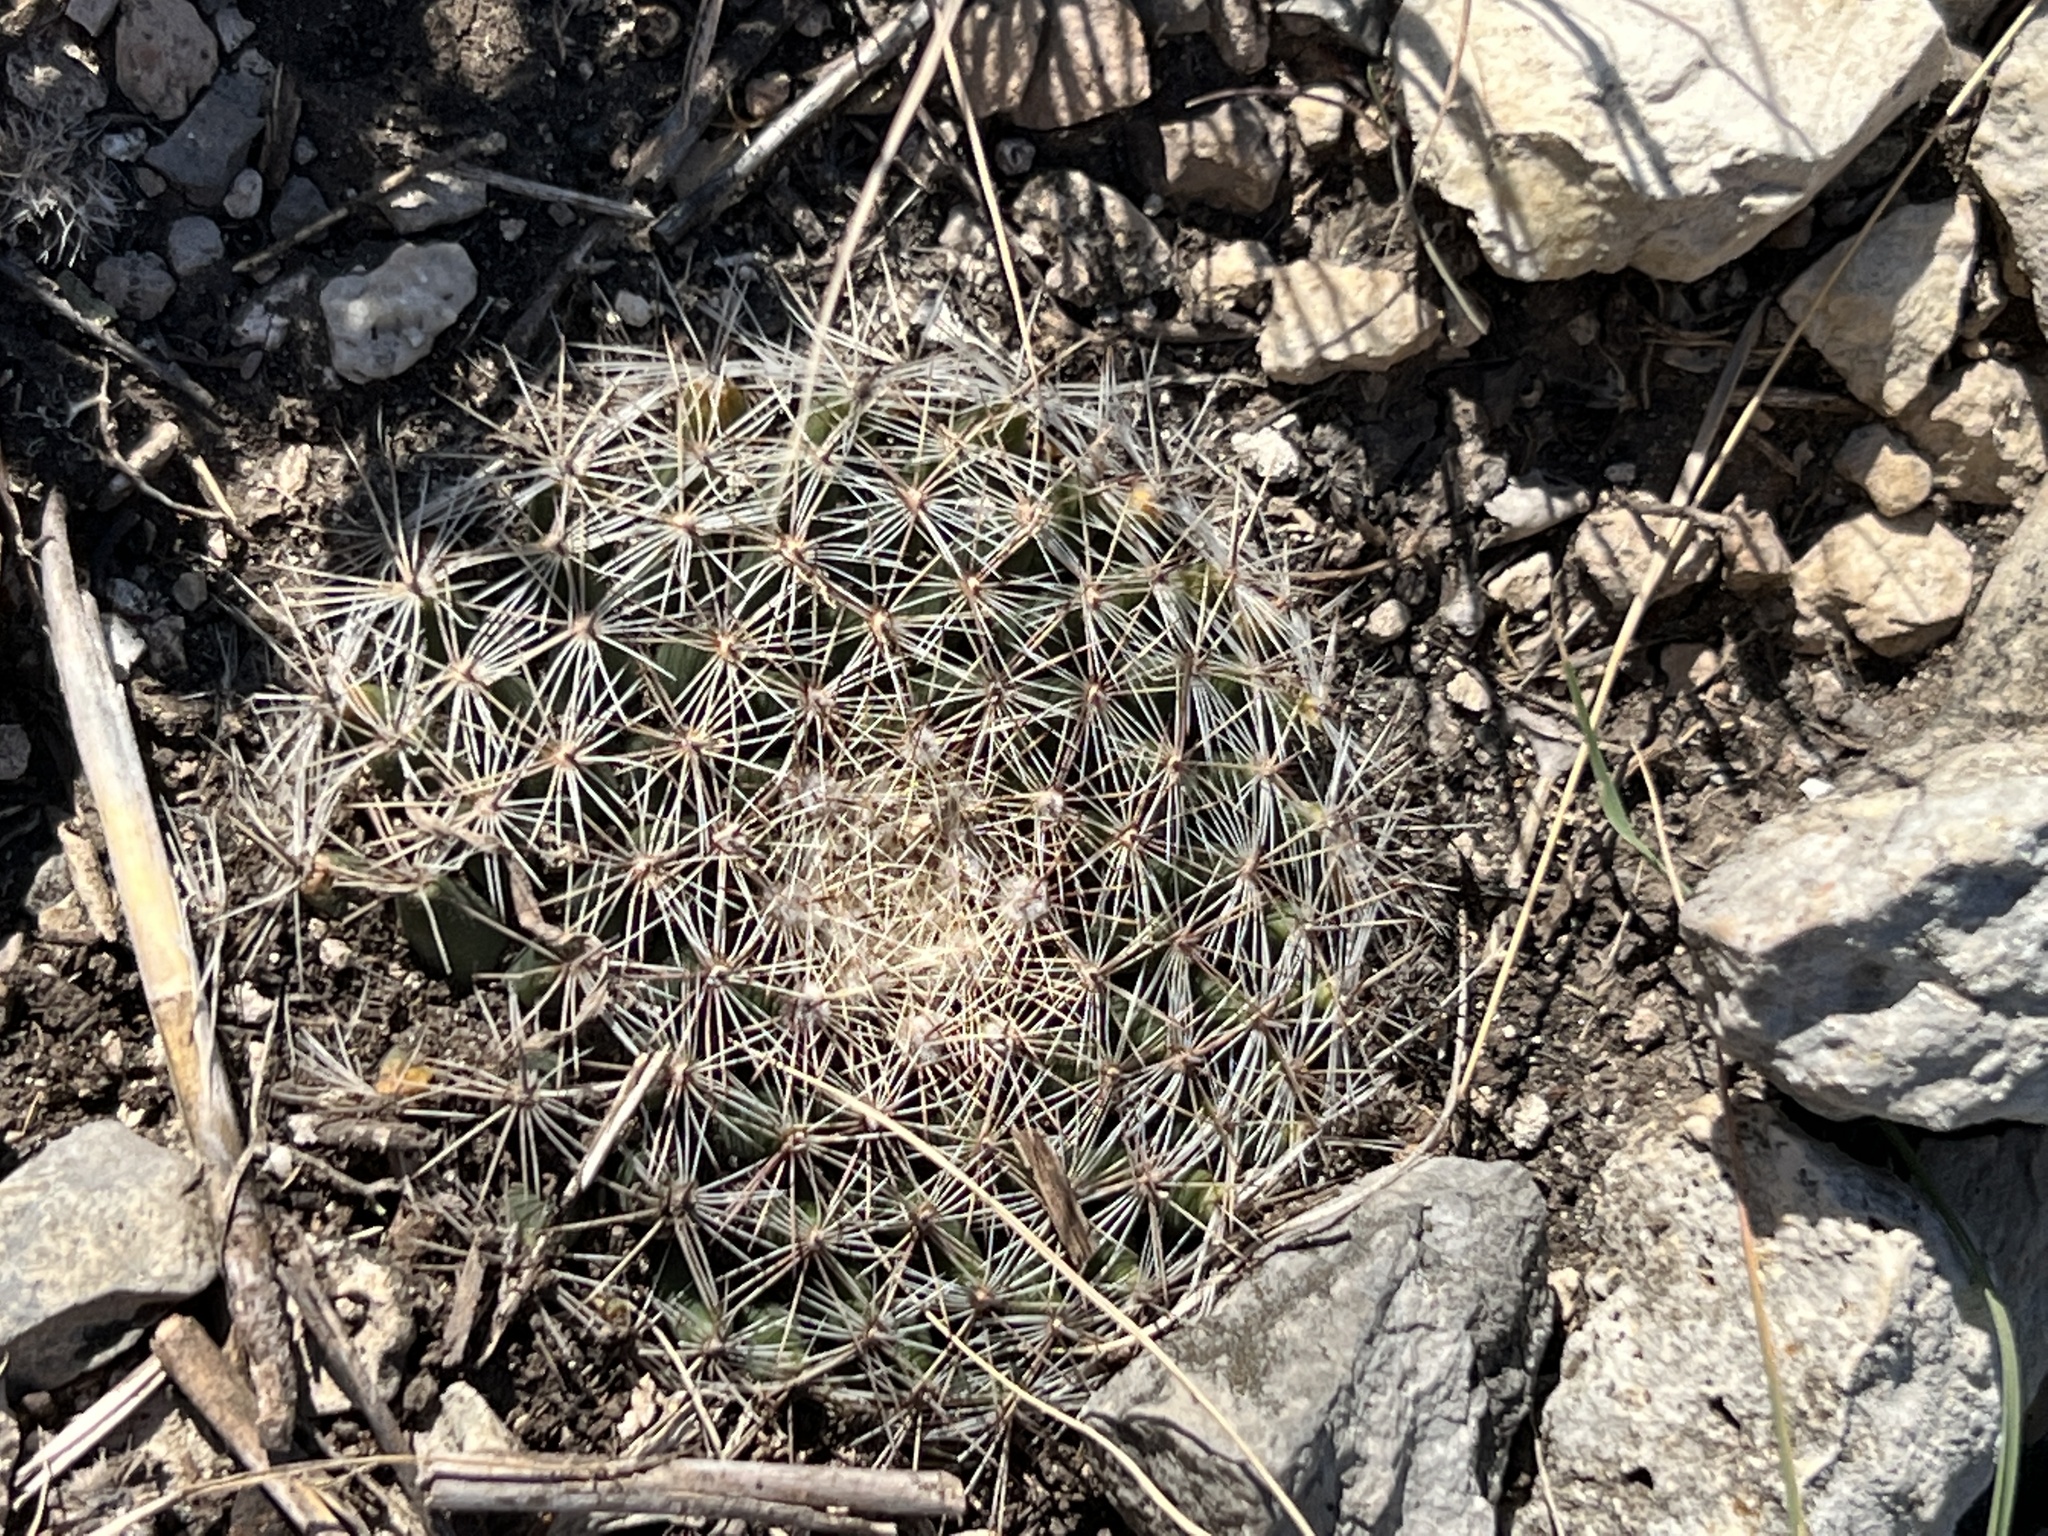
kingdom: Plantae
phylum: Tracheophyta
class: Magnoliopsida
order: Caryophyllales
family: Cactaceae
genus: Mammillaria
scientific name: Mammillaria heyderi
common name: Little nipple cactus
